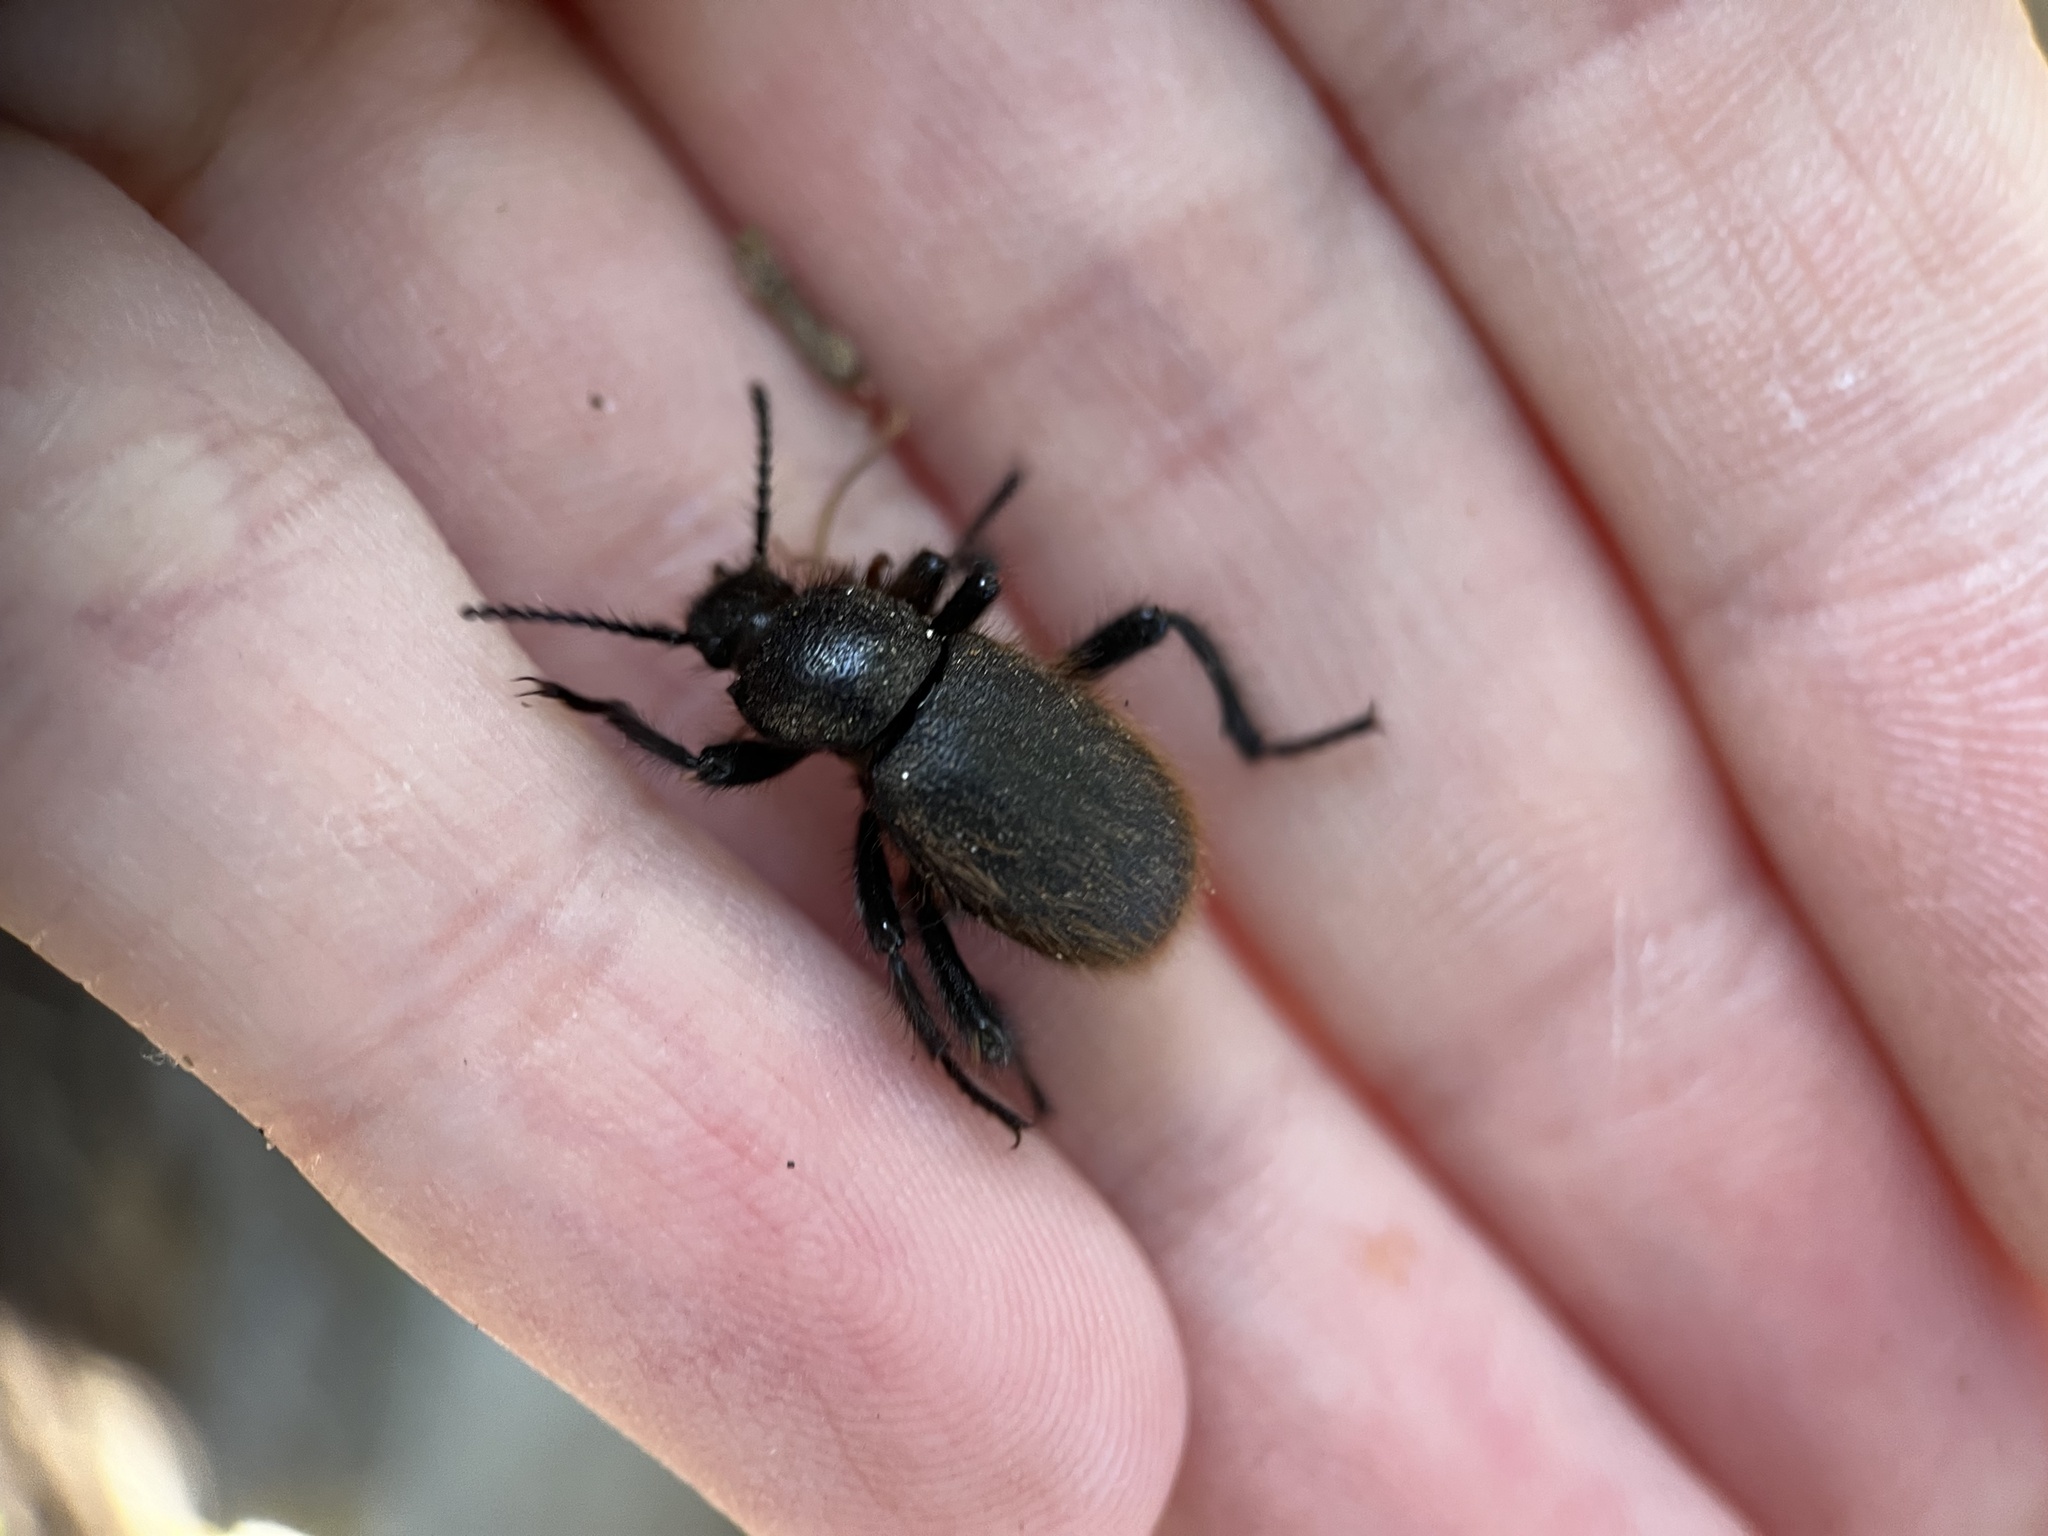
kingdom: Animalia
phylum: Arthropoda
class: Insecta
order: Coleoptera
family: Tenebrionidae
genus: Eleodes
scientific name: Eleodes osculans
